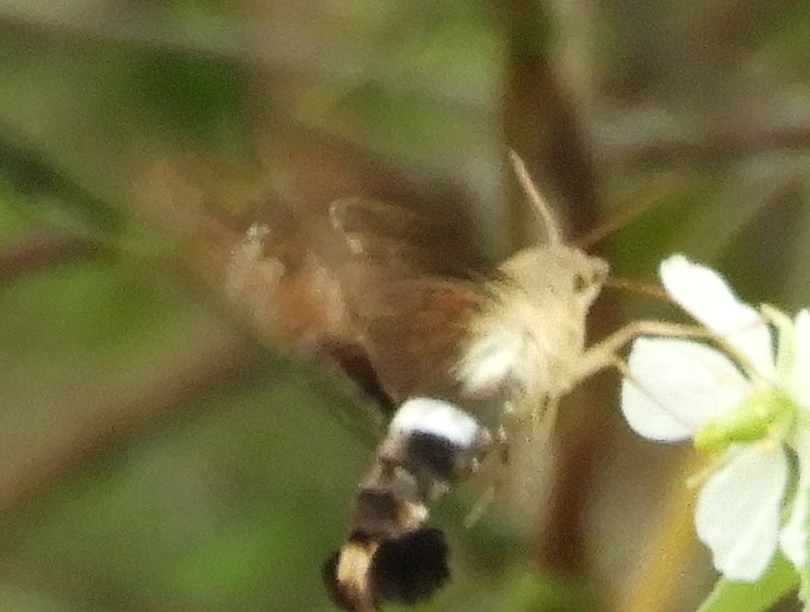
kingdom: Animalia
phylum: Arthropoda
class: Insecta
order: Lepidoptera
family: Sphingidae
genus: Aellopos
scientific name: Aellopos
